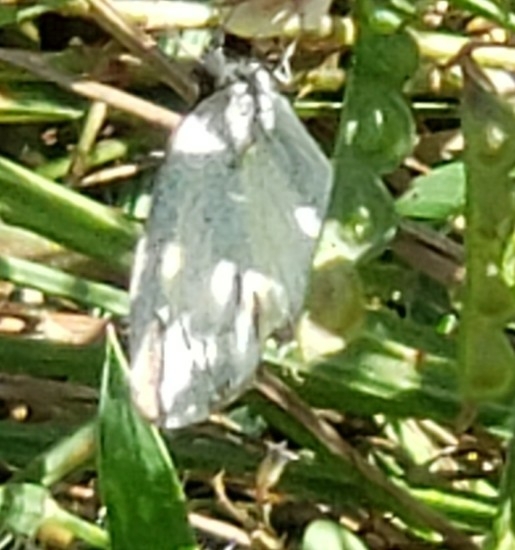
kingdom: Animalia
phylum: Arthropoda
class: Insecta
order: Lepidoptera
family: Pieridae
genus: Eurema
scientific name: Eurema daira
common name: Barred sulphur
